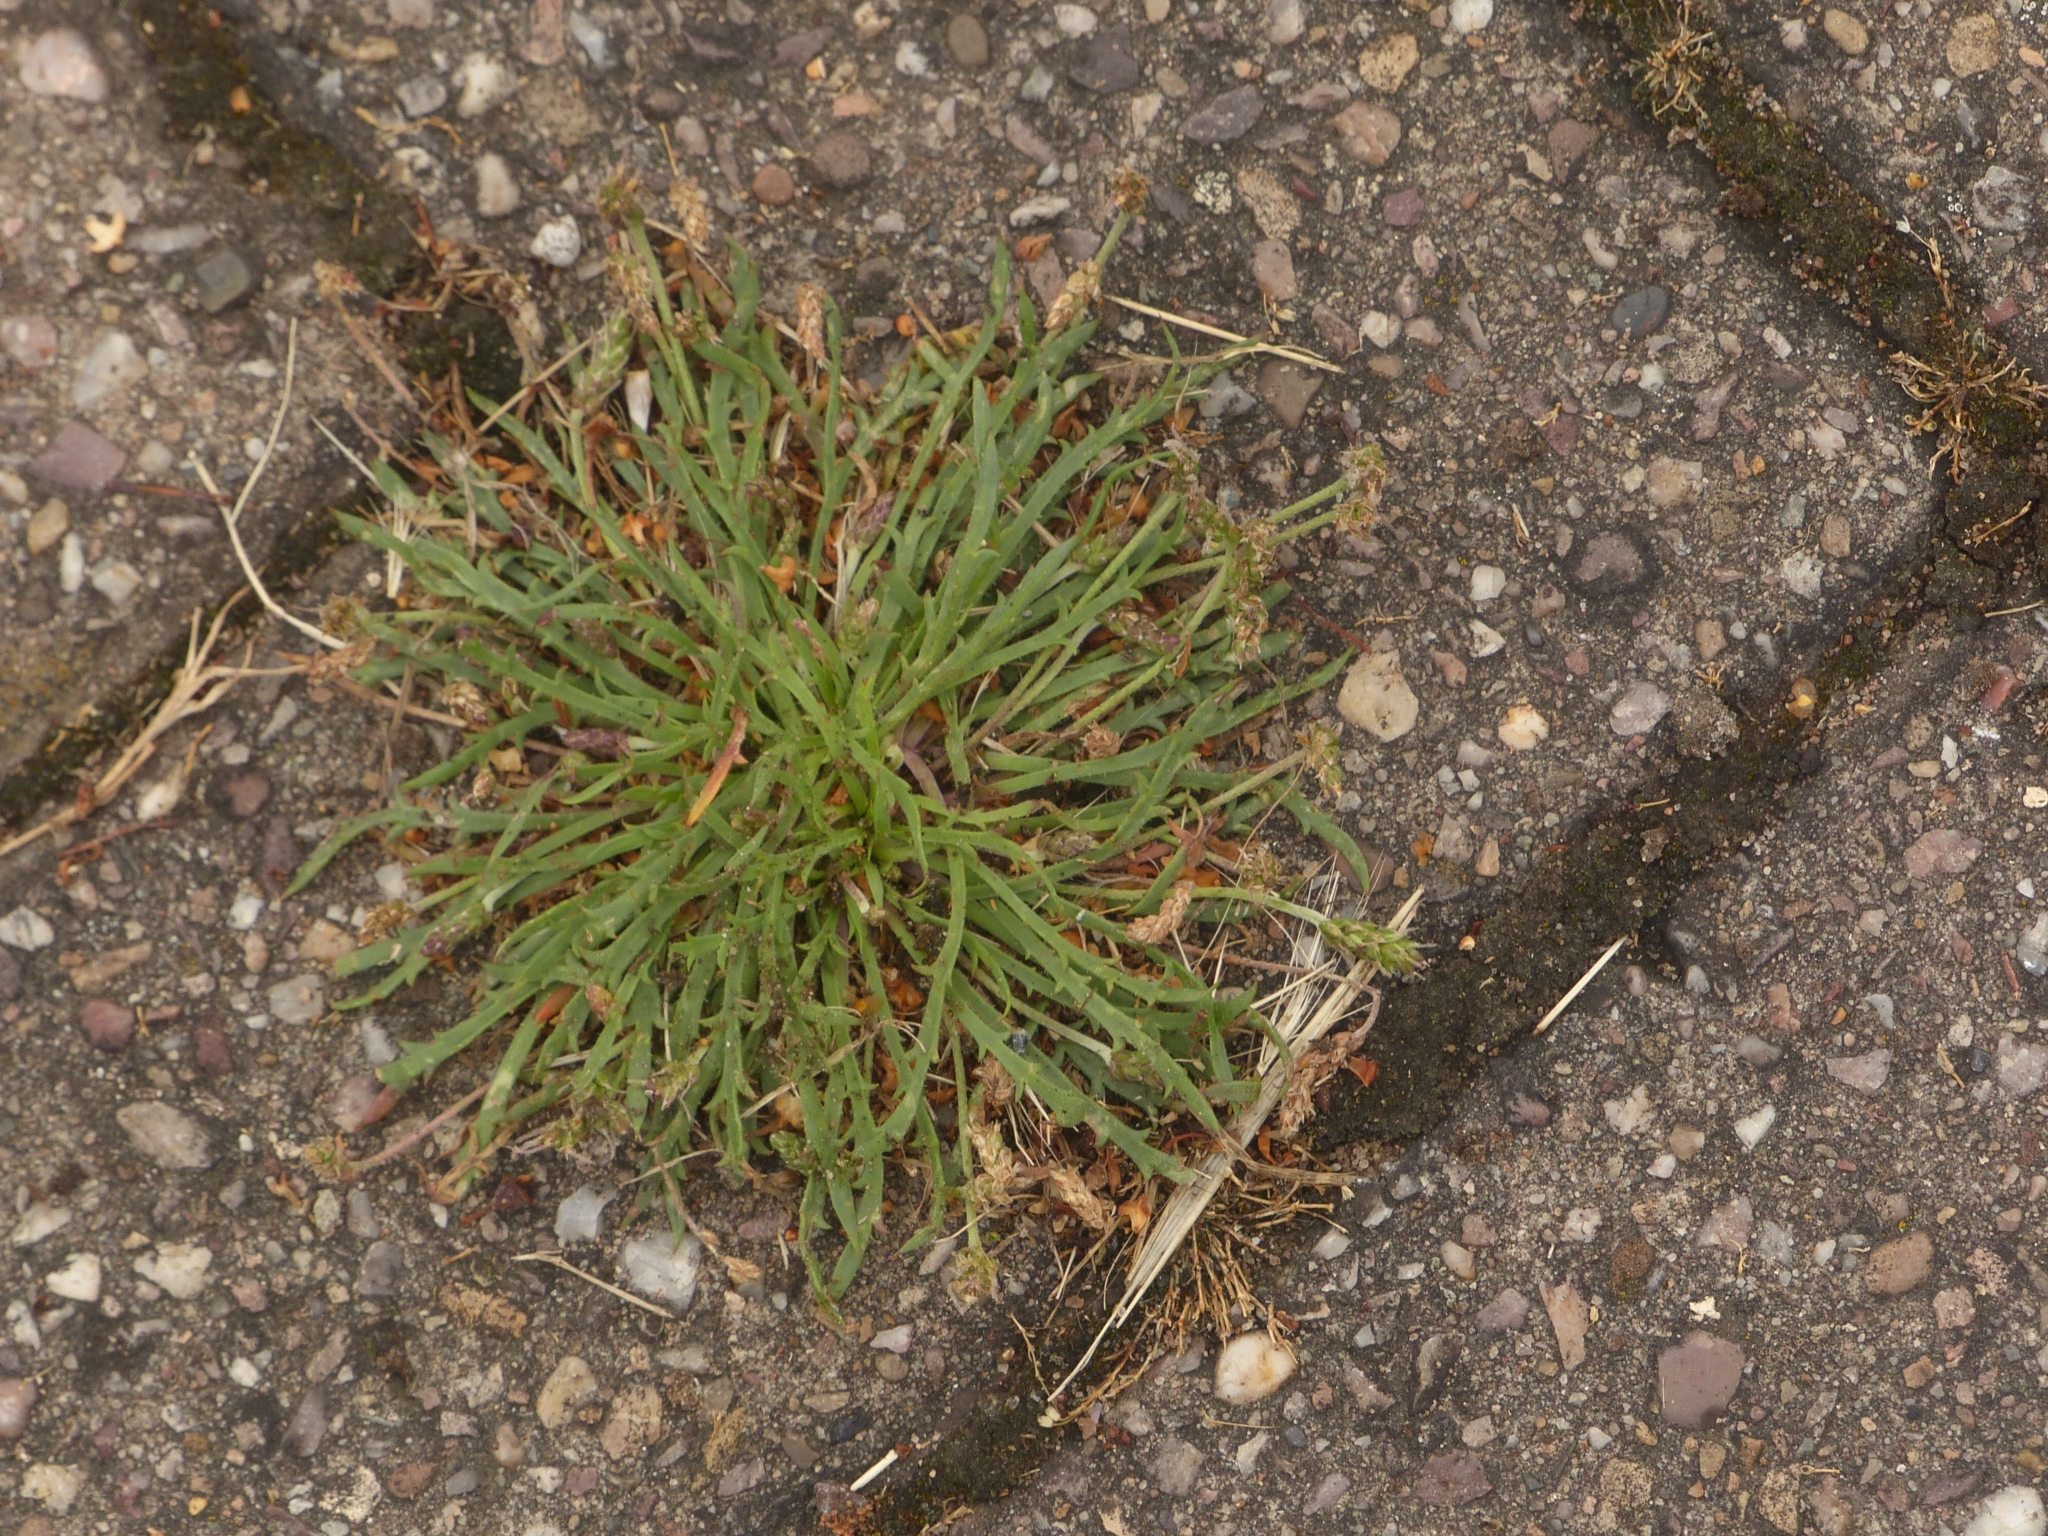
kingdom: Plantae
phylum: Tracheophyta
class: Magnoliopsida
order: Lamiales
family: Plantaginaceae
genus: Plantago
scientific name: Plantago coronopus
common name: Buck's-horn plantain
